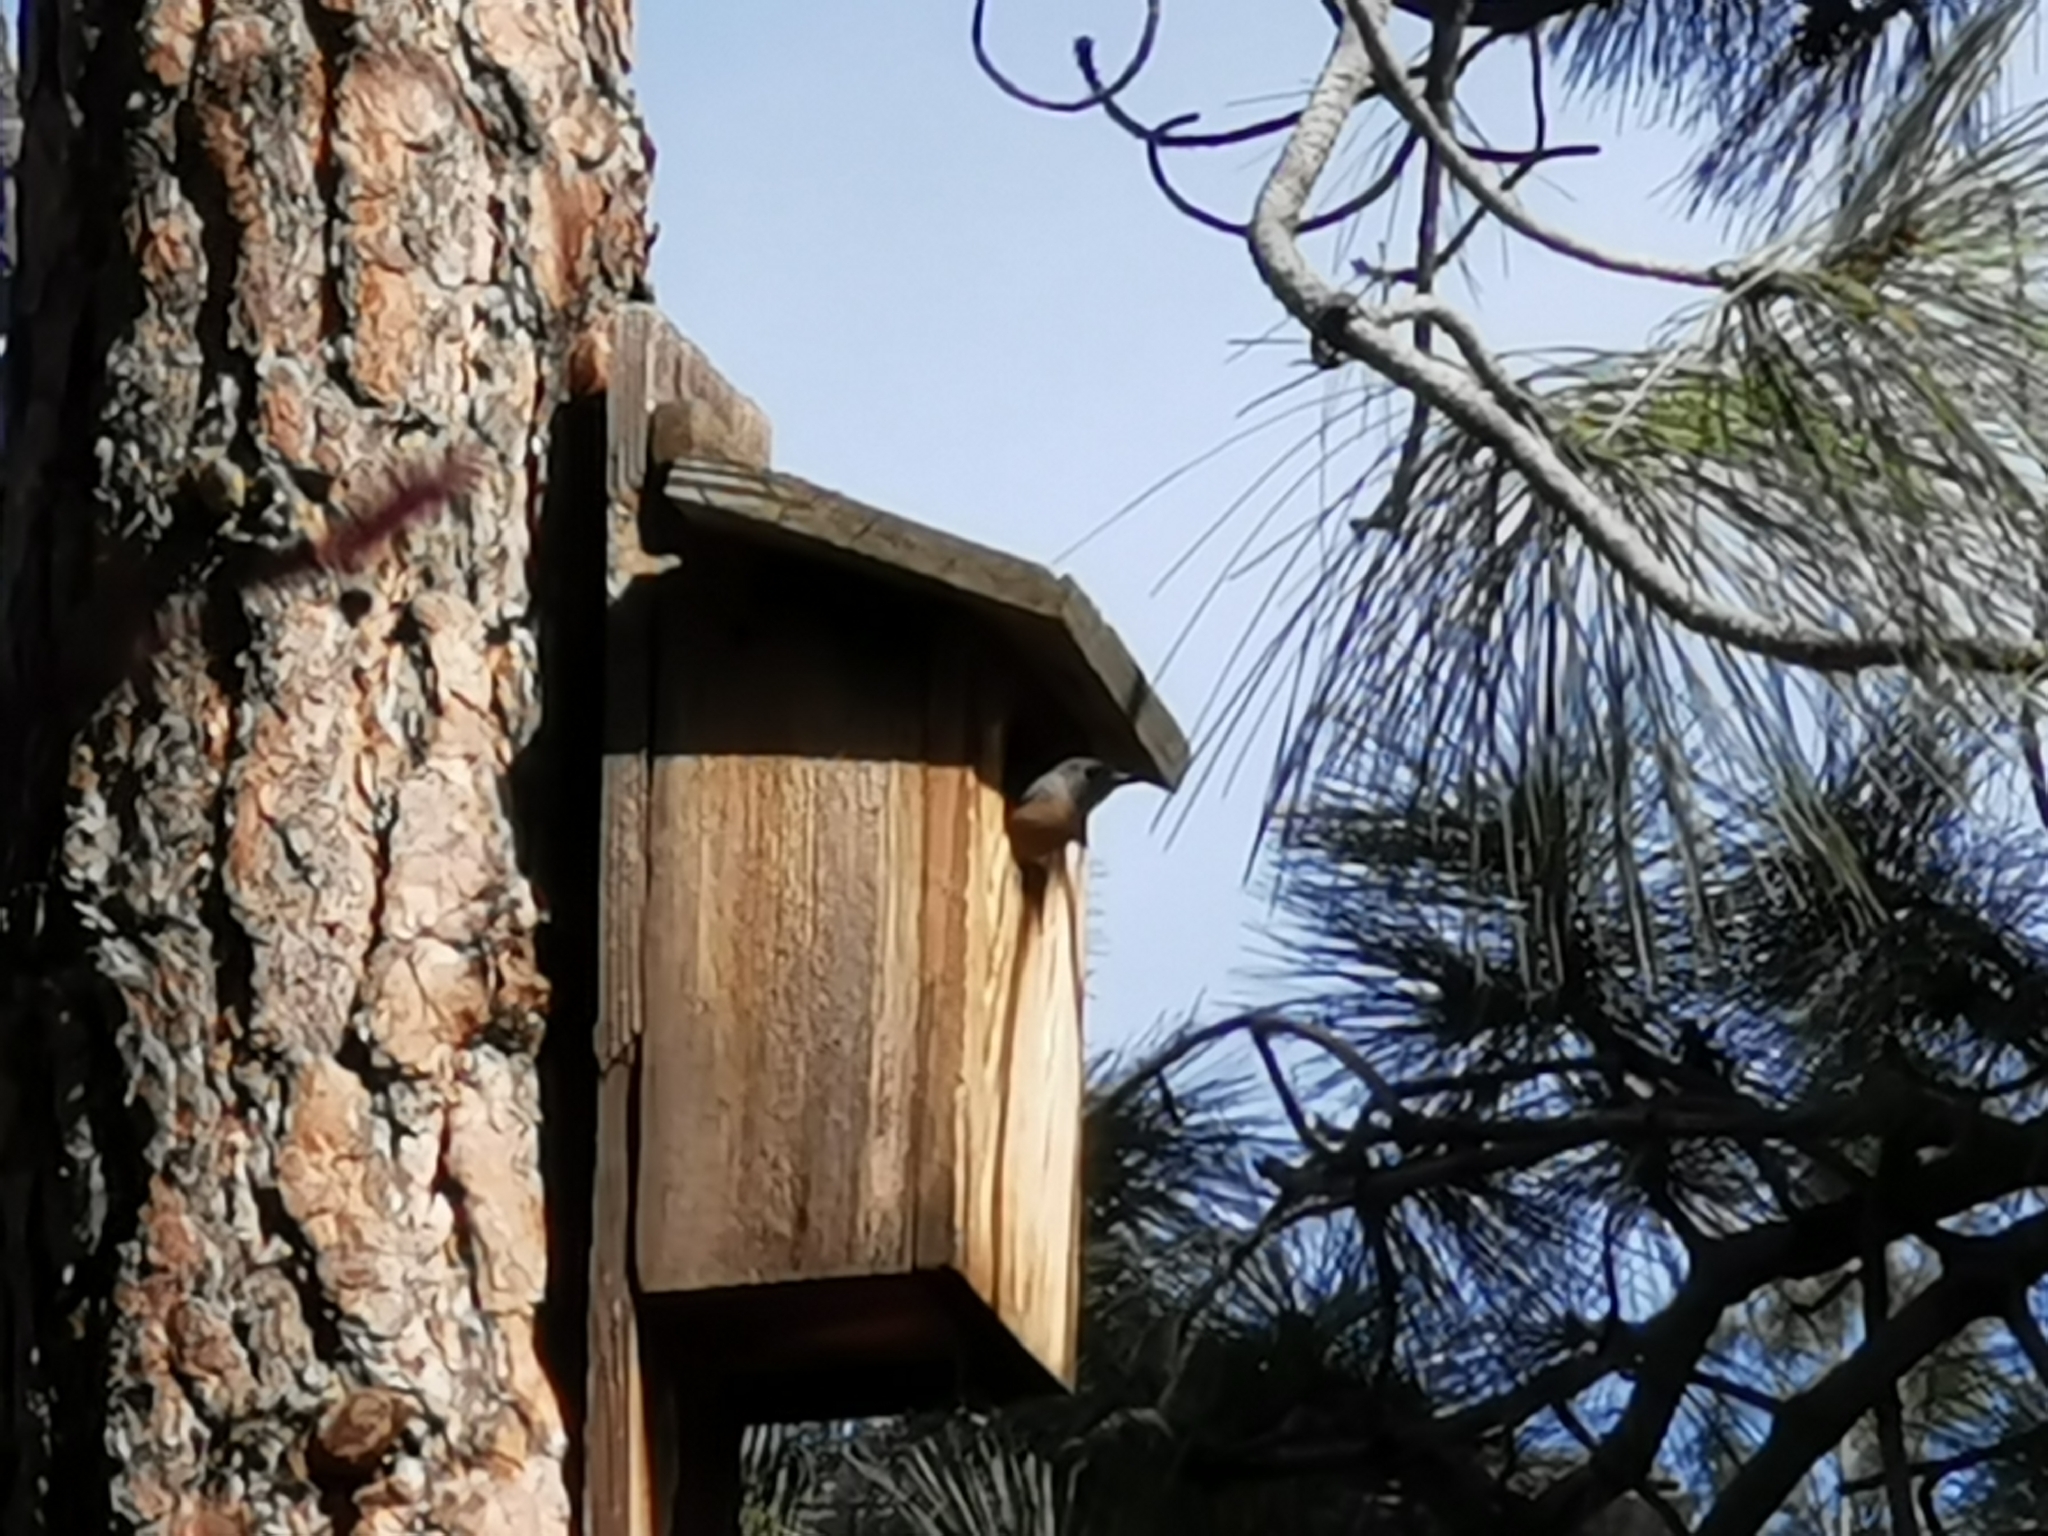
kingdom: Animalia
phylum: Chordata
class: Aves
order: Passeriformes
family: Turdidae
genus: Sialia
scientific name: Sialia mexicana
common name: Western bluebird
